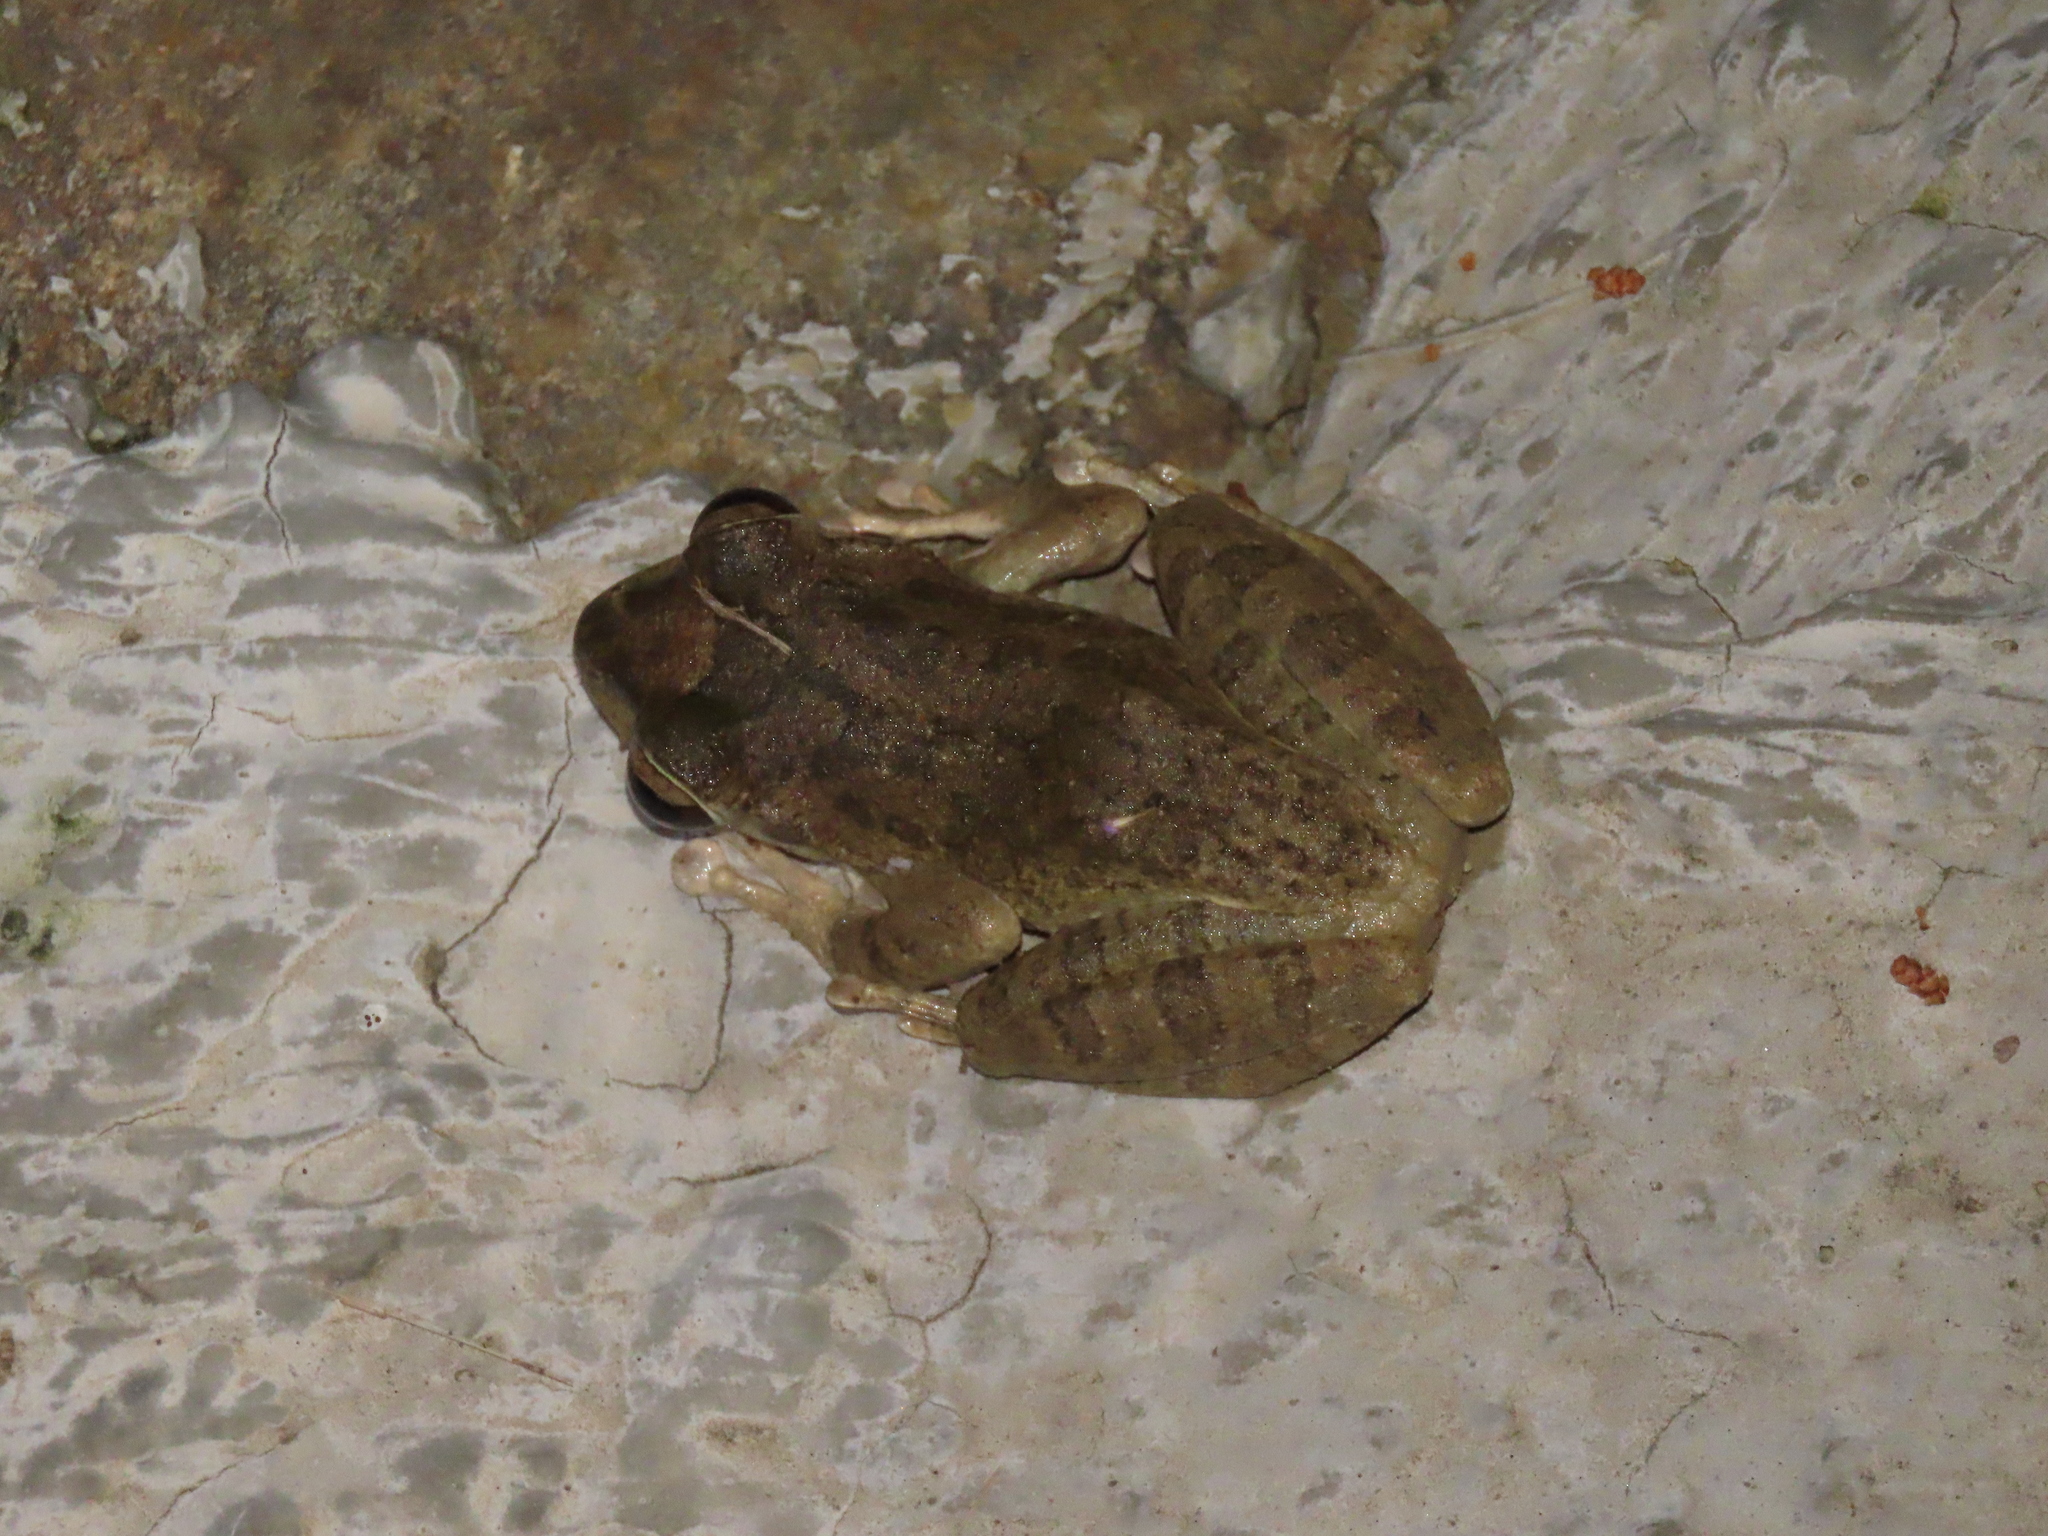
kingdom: Animalia
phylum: Chordata
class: Amphibia
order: Anura
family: Rhacophoridae
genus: Buergeria
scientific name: Buergeria robusta
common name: Brown treefrog
